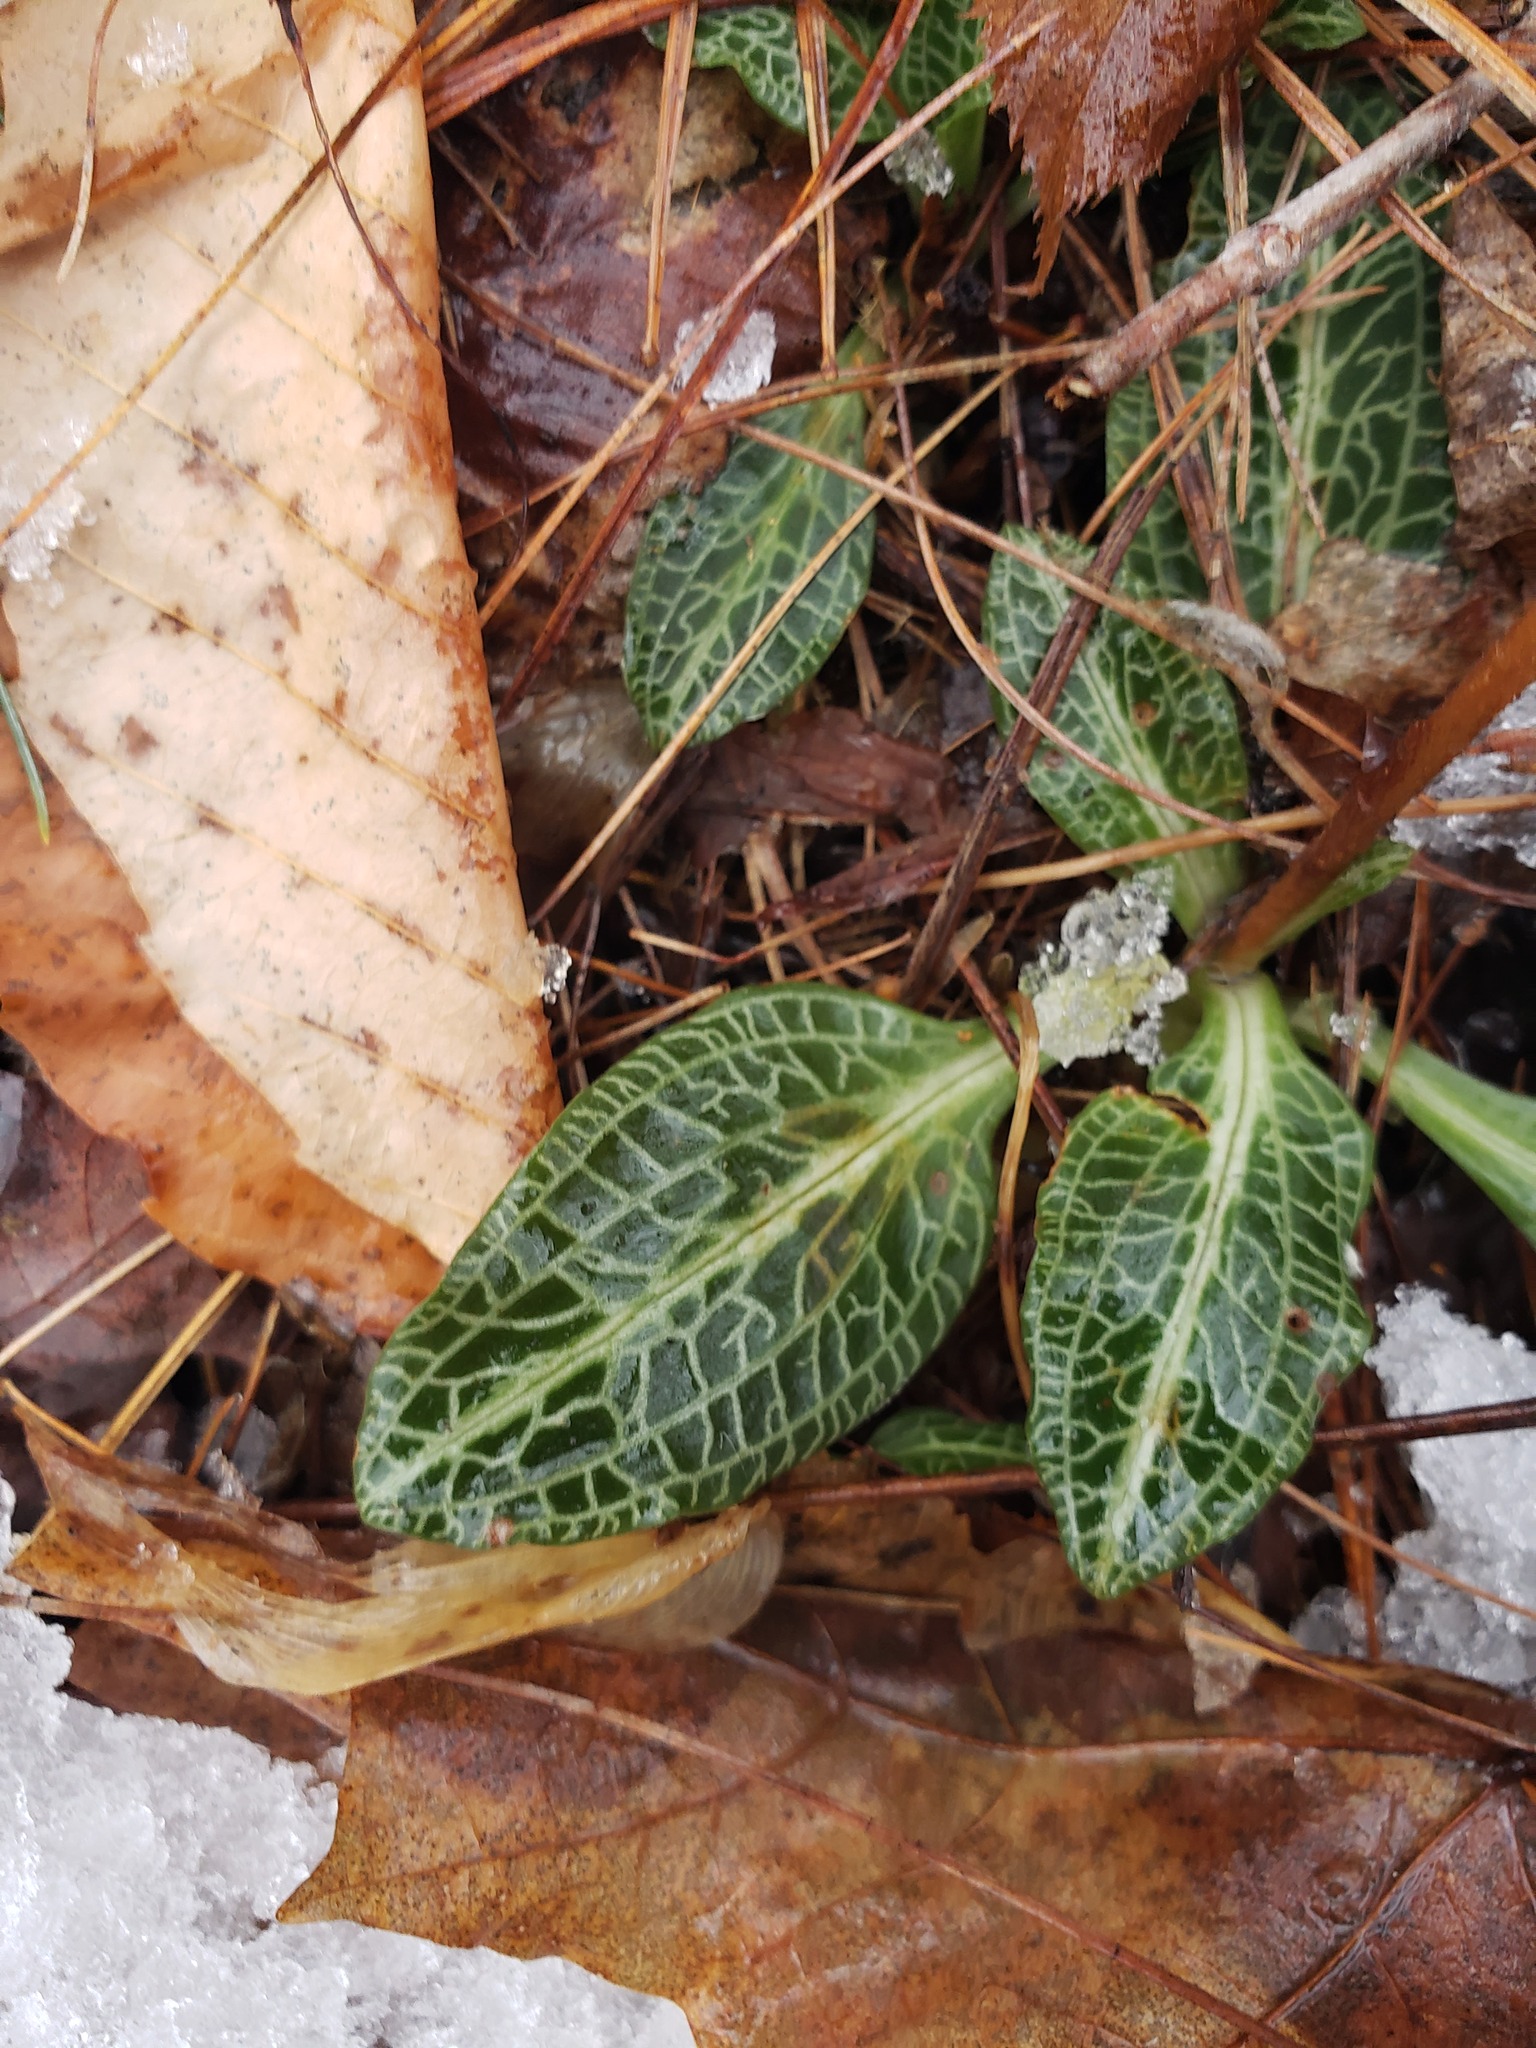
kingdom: Plantae
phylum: Tracheophyta
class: Liliopsida
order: Asparagales
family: Orchidaceae
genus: Goodyera
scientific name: Goodyera pubescens
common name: Downy rattlesnake-plantain
